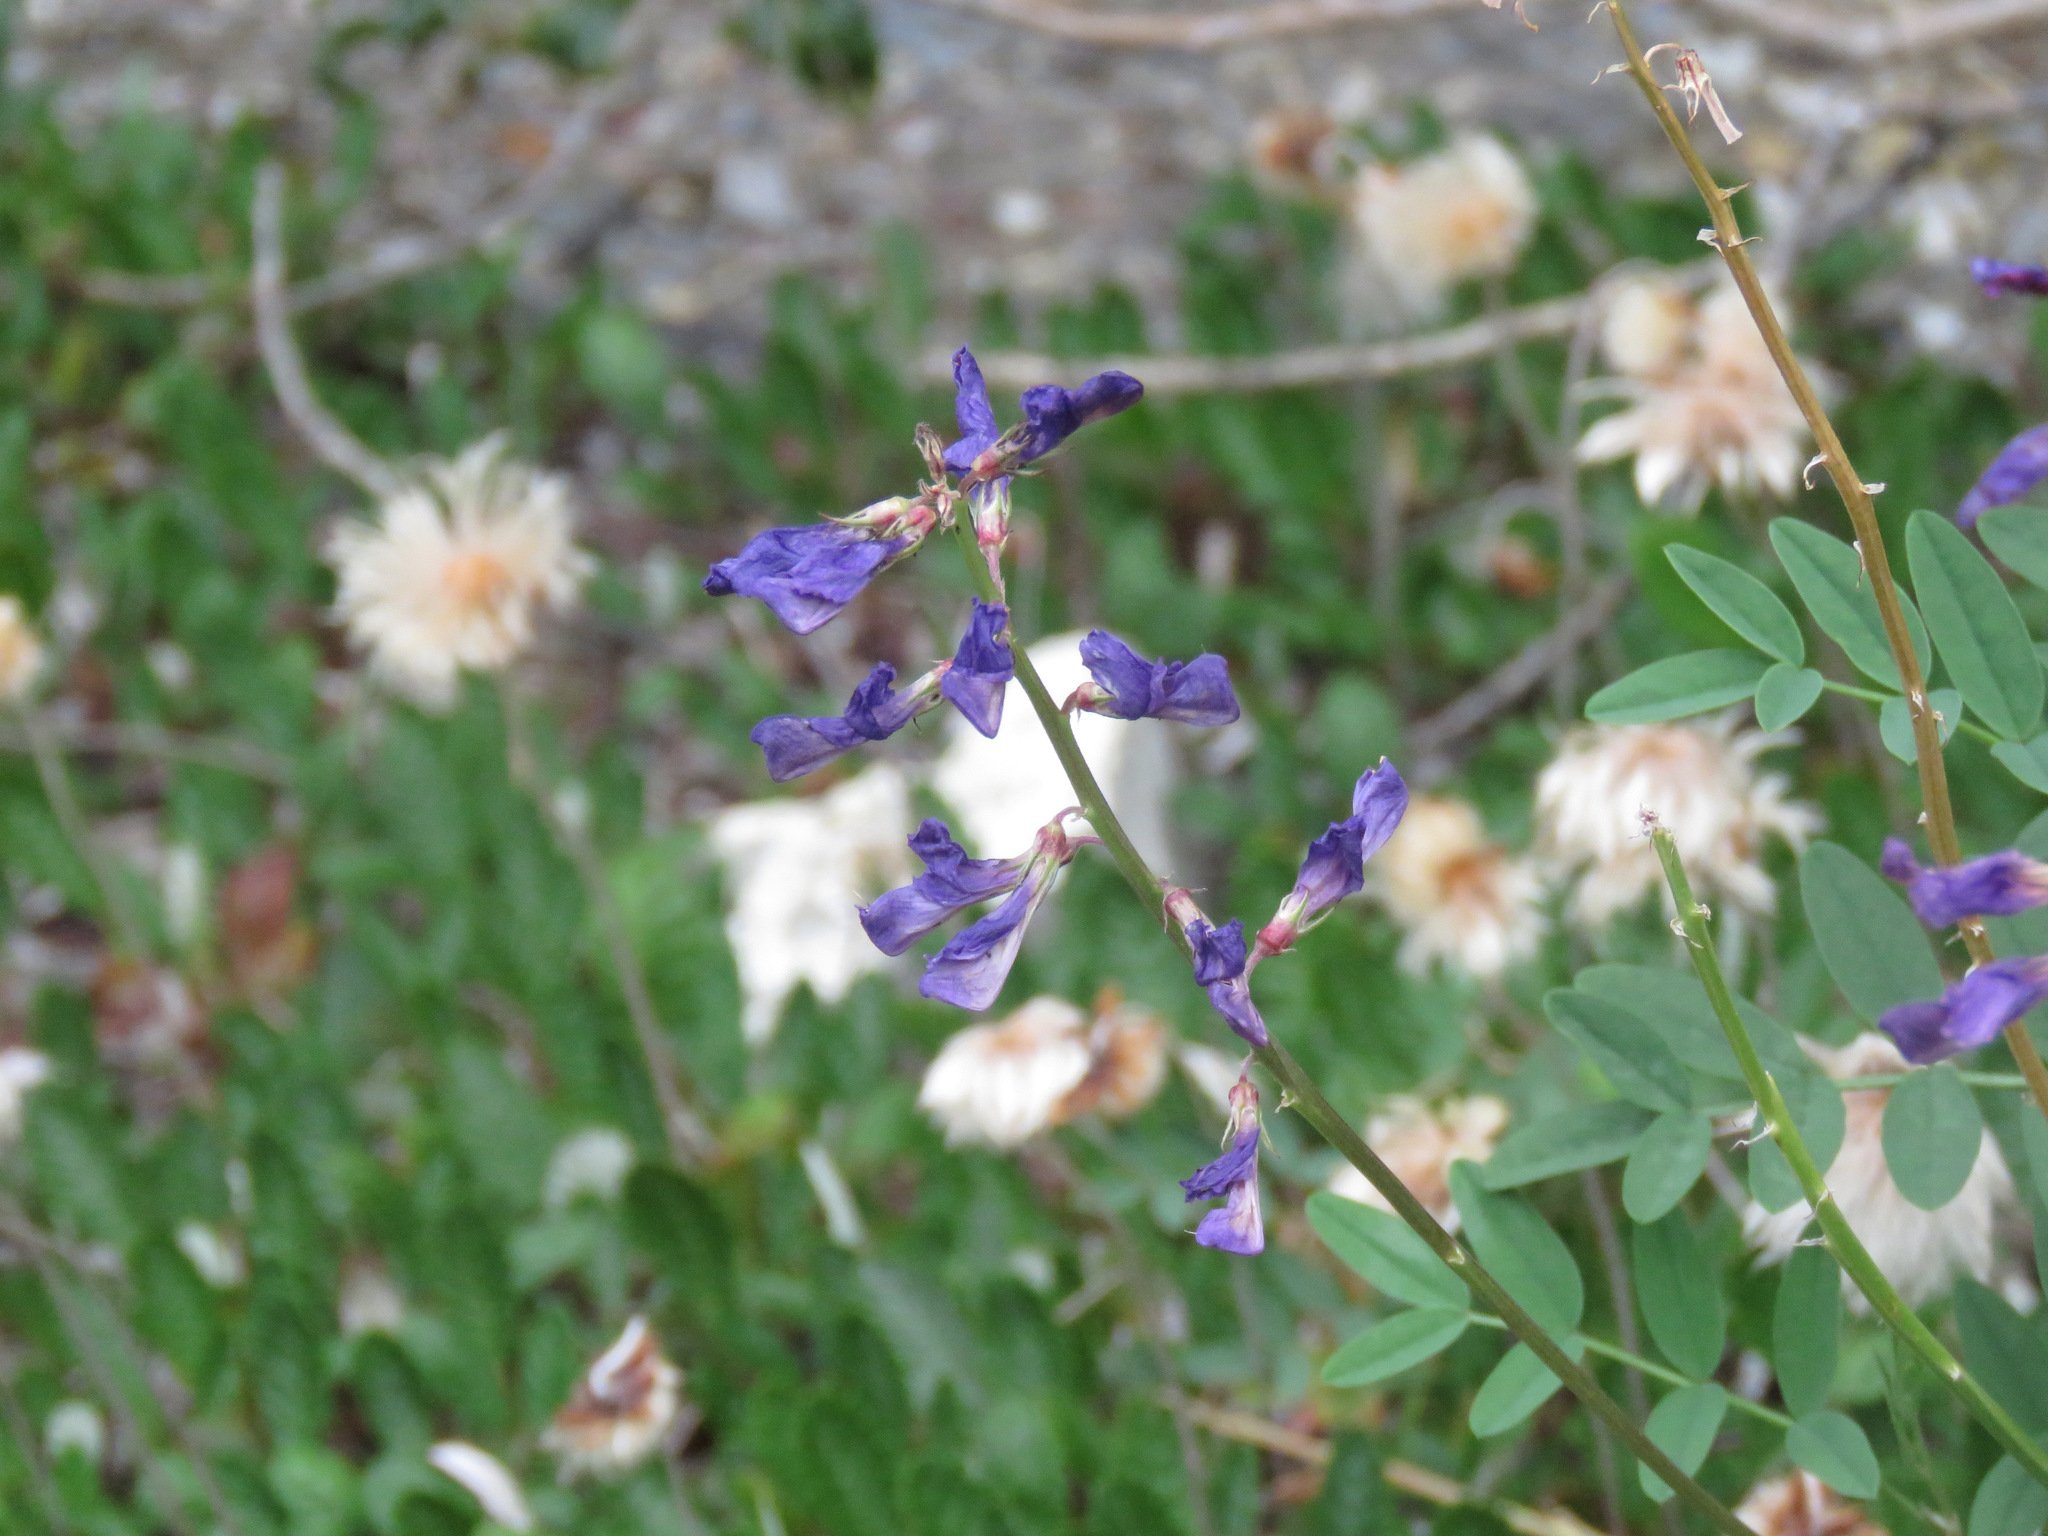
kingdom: Plantae
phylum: Tracheophyta
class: Magnoliopsida
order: Fabales
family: Fabaceae
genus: Hedysarum
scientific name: Hedysarum boreale
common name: Northern sweet-vetch
